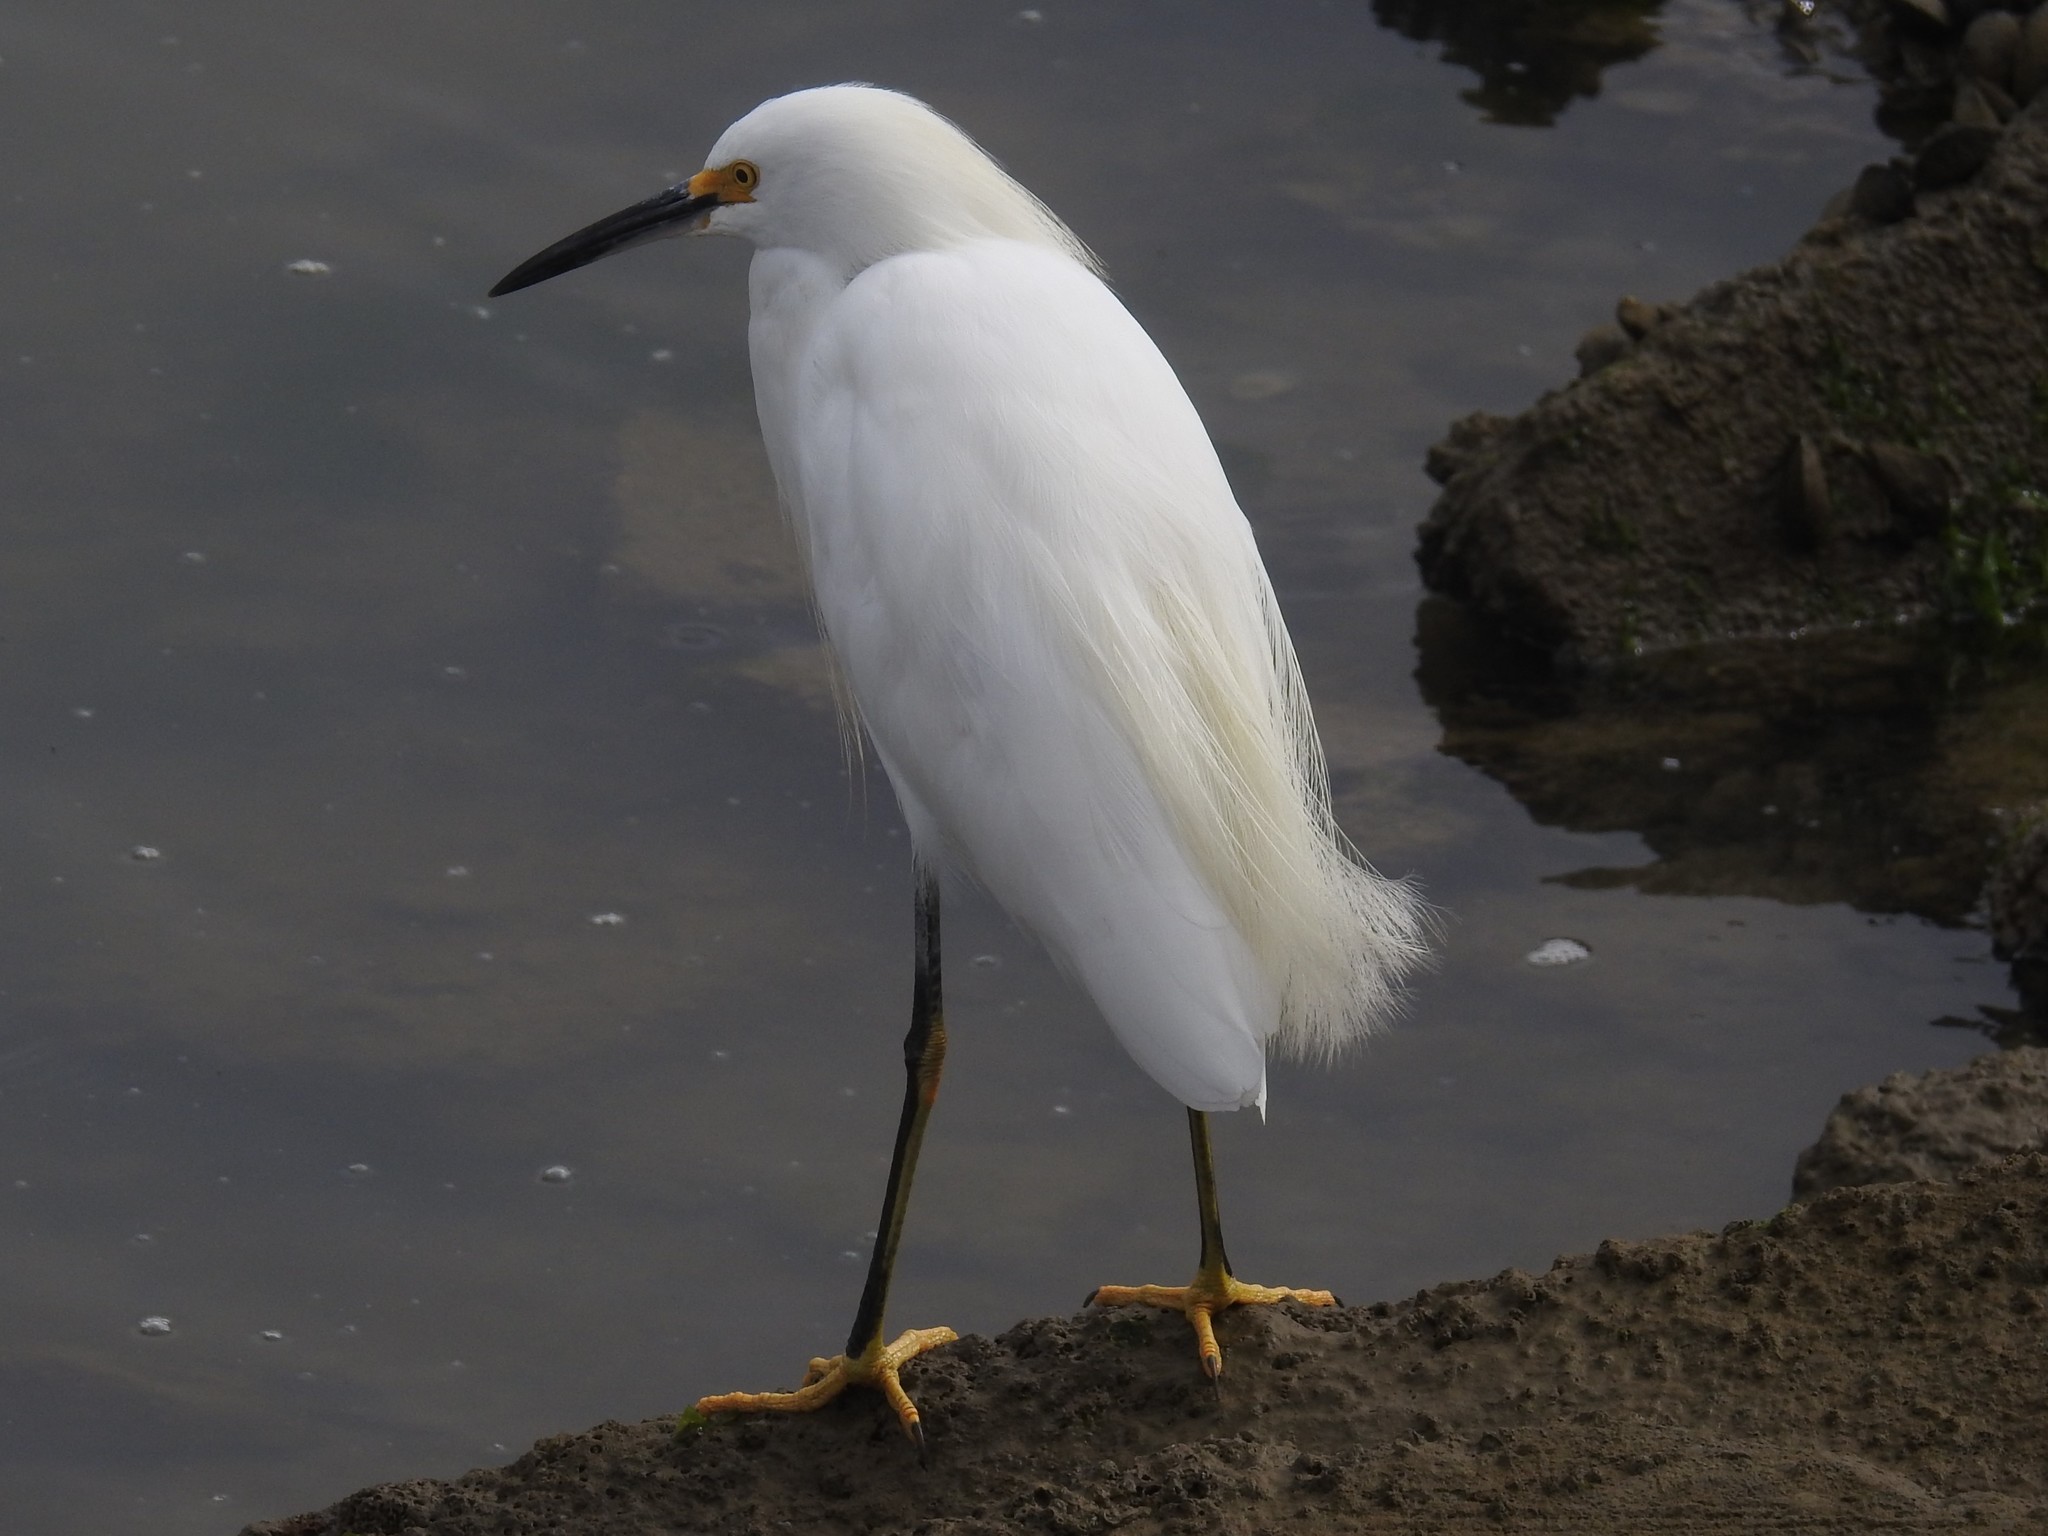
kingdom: Animalia
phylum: Chordata
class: Aves
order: Pelecaniformes
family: Ardeidae
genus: Egretta
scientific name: Egretta thula
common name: Snowy egret
